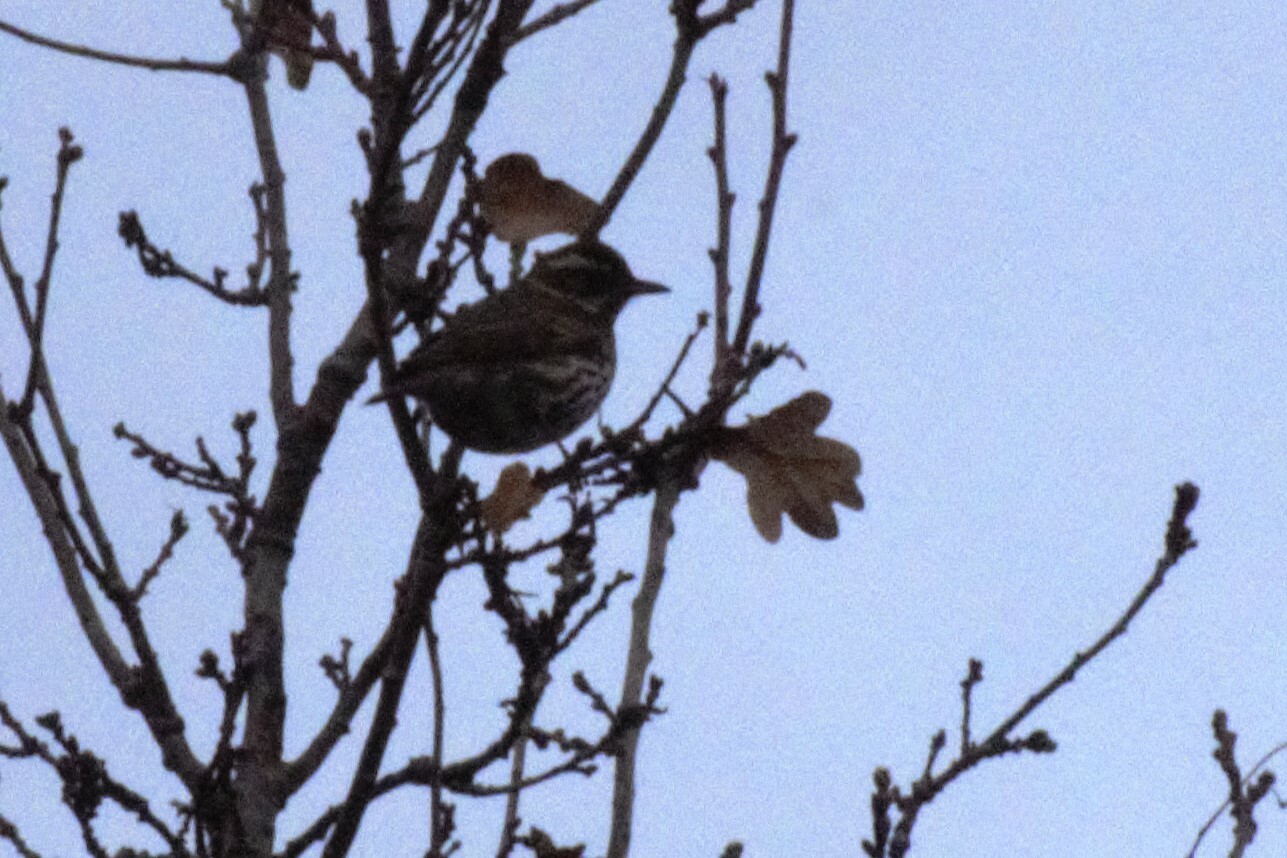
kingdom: Animalia
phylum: Chordata
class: Aves
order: Passeriformes
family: Turdidae
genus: Turdus
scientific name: Turdus iliacus
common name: Redwing
